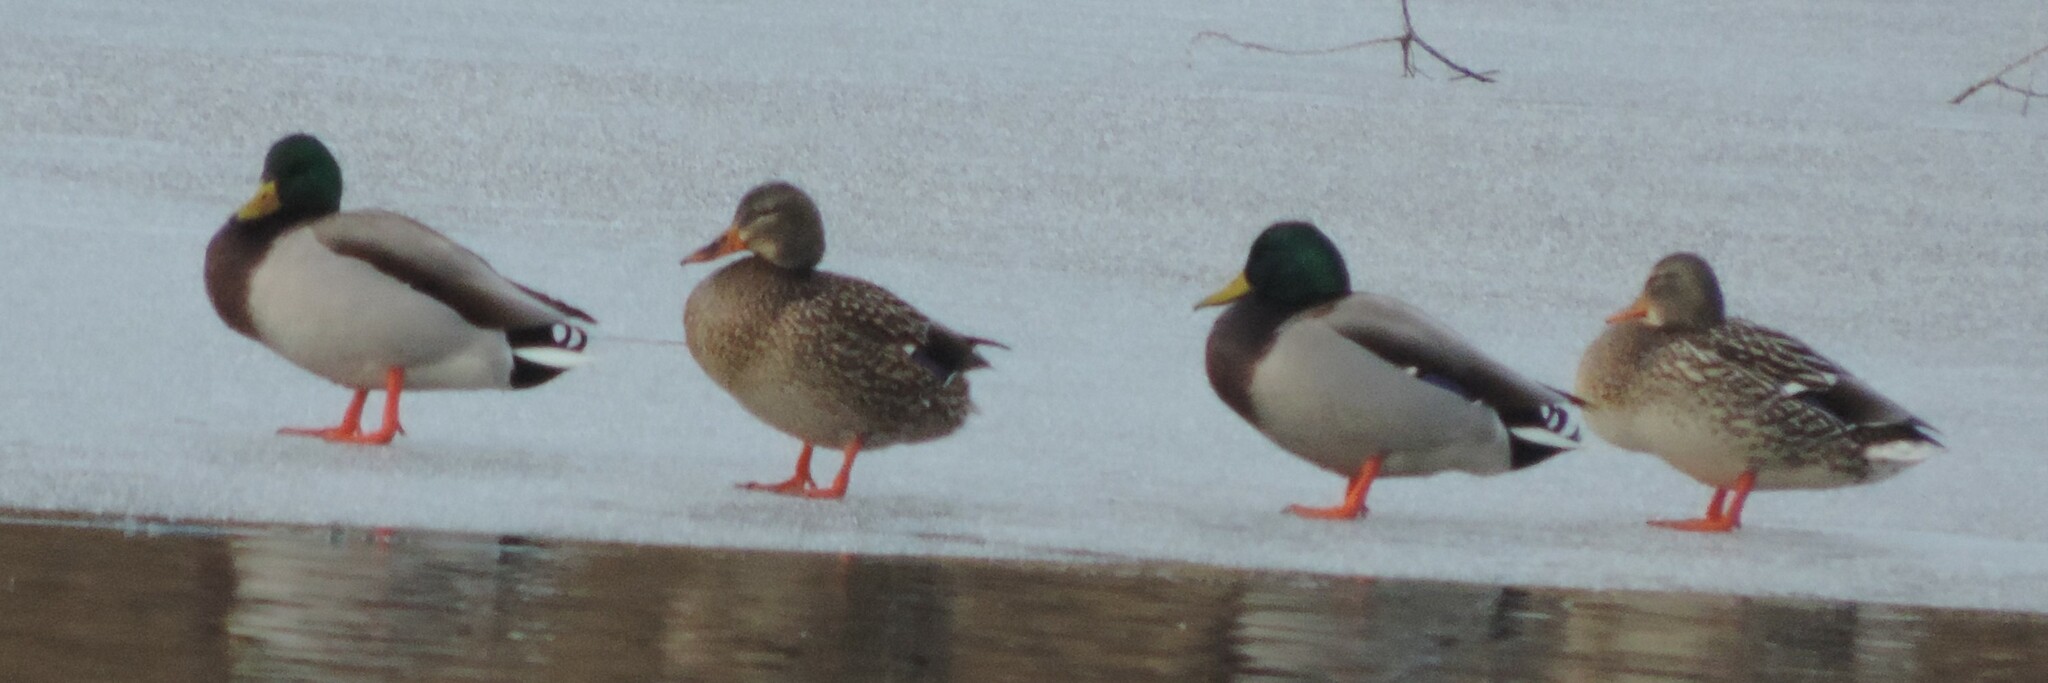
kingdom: Animalia
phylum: Chordata
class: Aves
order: Anseriformes
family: Anatidae
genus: Anas
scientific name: Anas platyrhynchos
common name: Mallard
